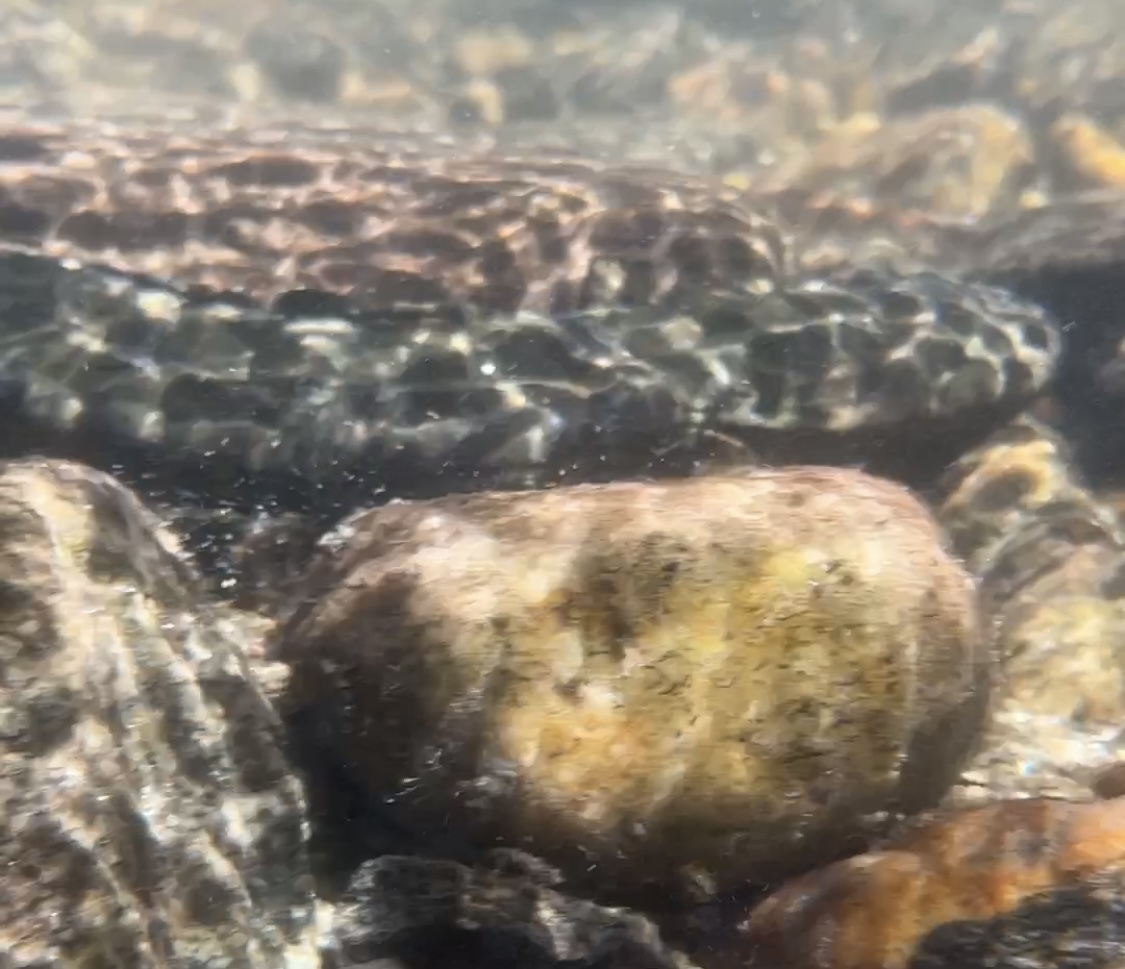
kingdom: Animalia
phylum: Chordata
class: Amphibia
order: Caudata
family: Cryptobranchidae
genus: Cryptobranchus
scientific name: Cryptobranchus alleganiensis
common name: Hellbender
